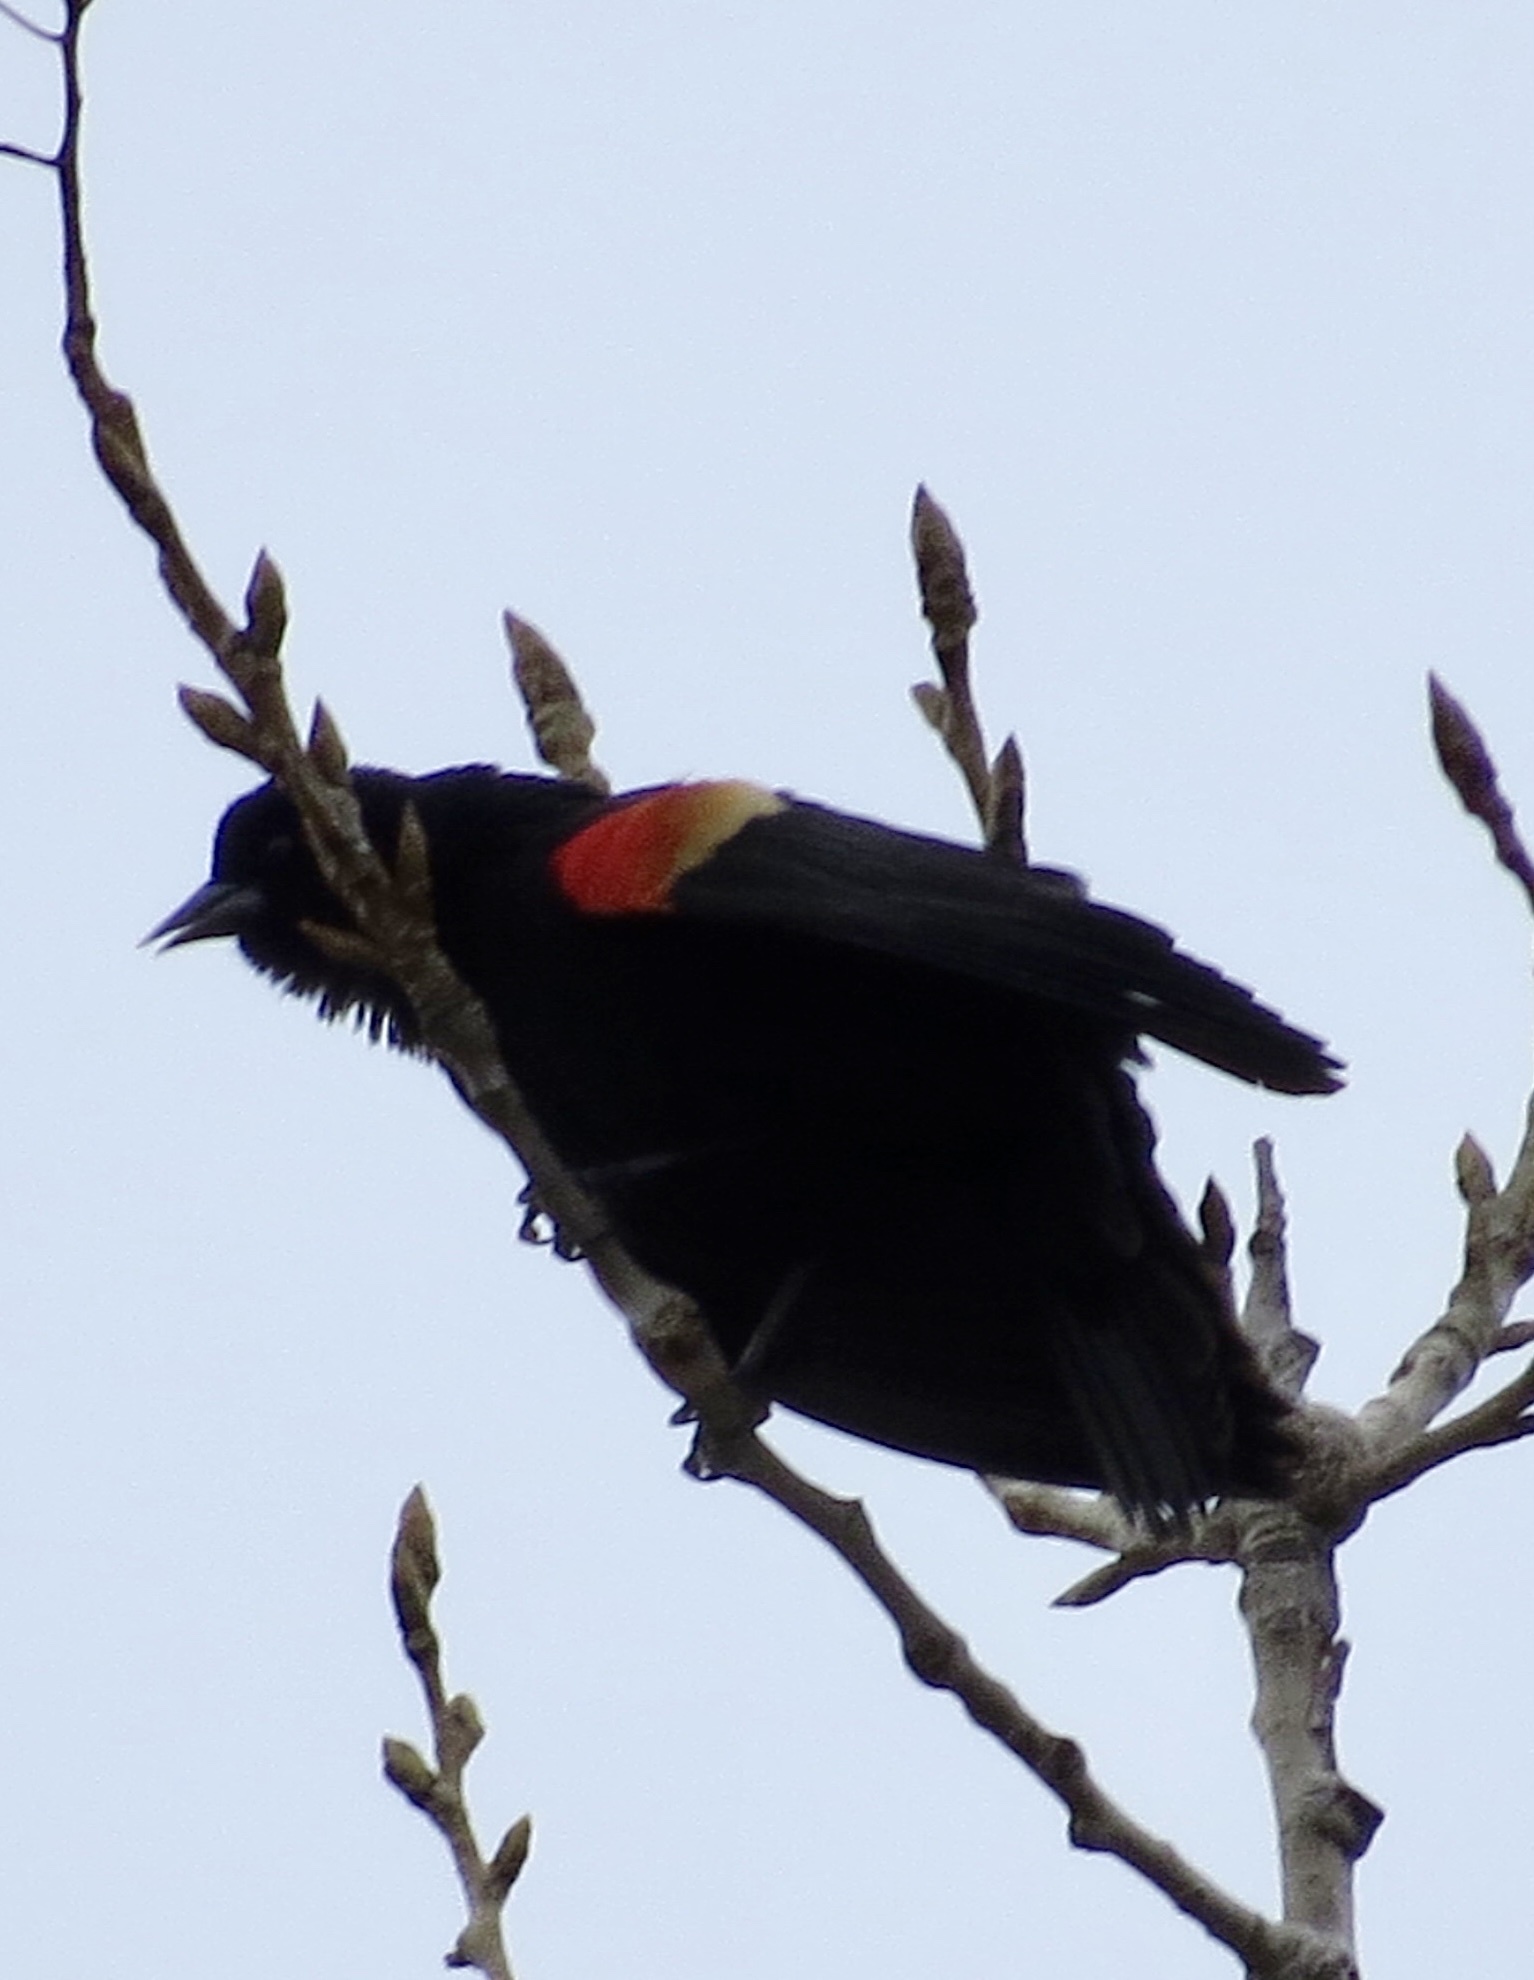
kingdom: Animalia
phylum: Chordata
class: Aves
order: Passeriformes
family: Icteridae
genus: Agelaius
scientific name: Agelaius phoeniceus
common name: Red-winged blackbird
